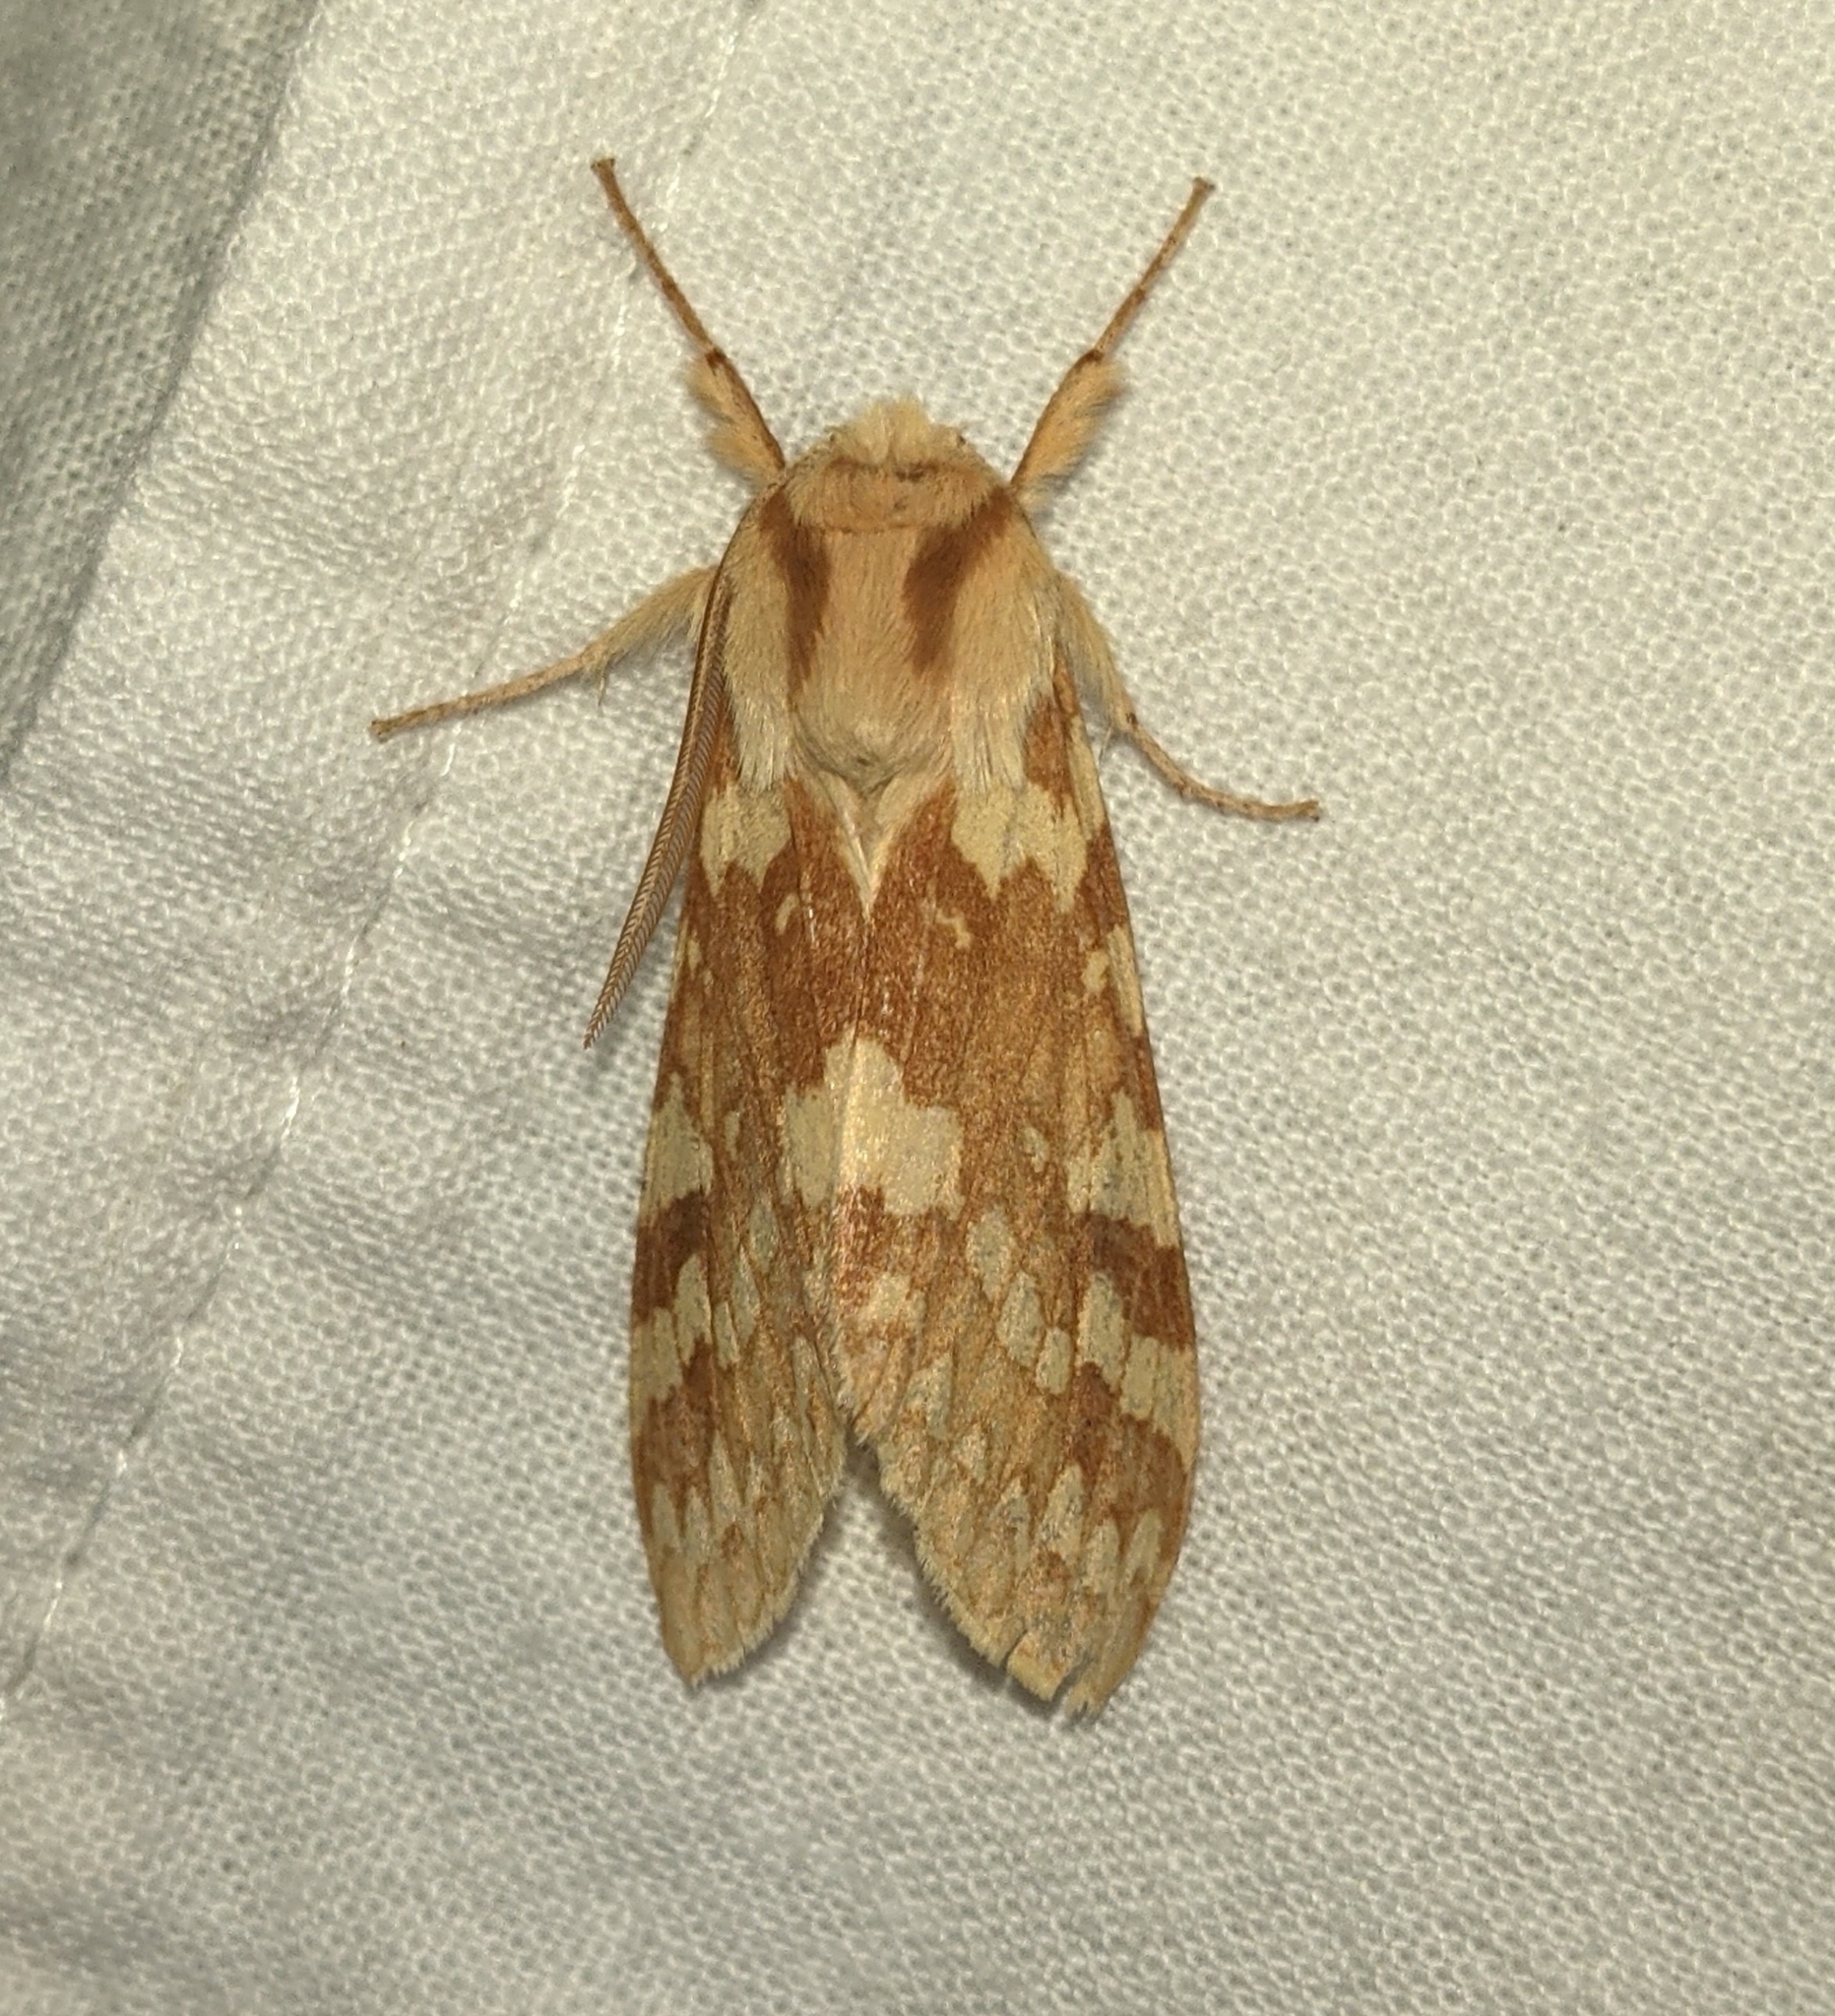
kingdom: Animalia
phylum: Arthropoda
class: Insecta
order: Lepidoptera
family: Erebidae
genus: Lophocampa
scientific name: Lophocampa maculata
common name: Spotted tussock moth
